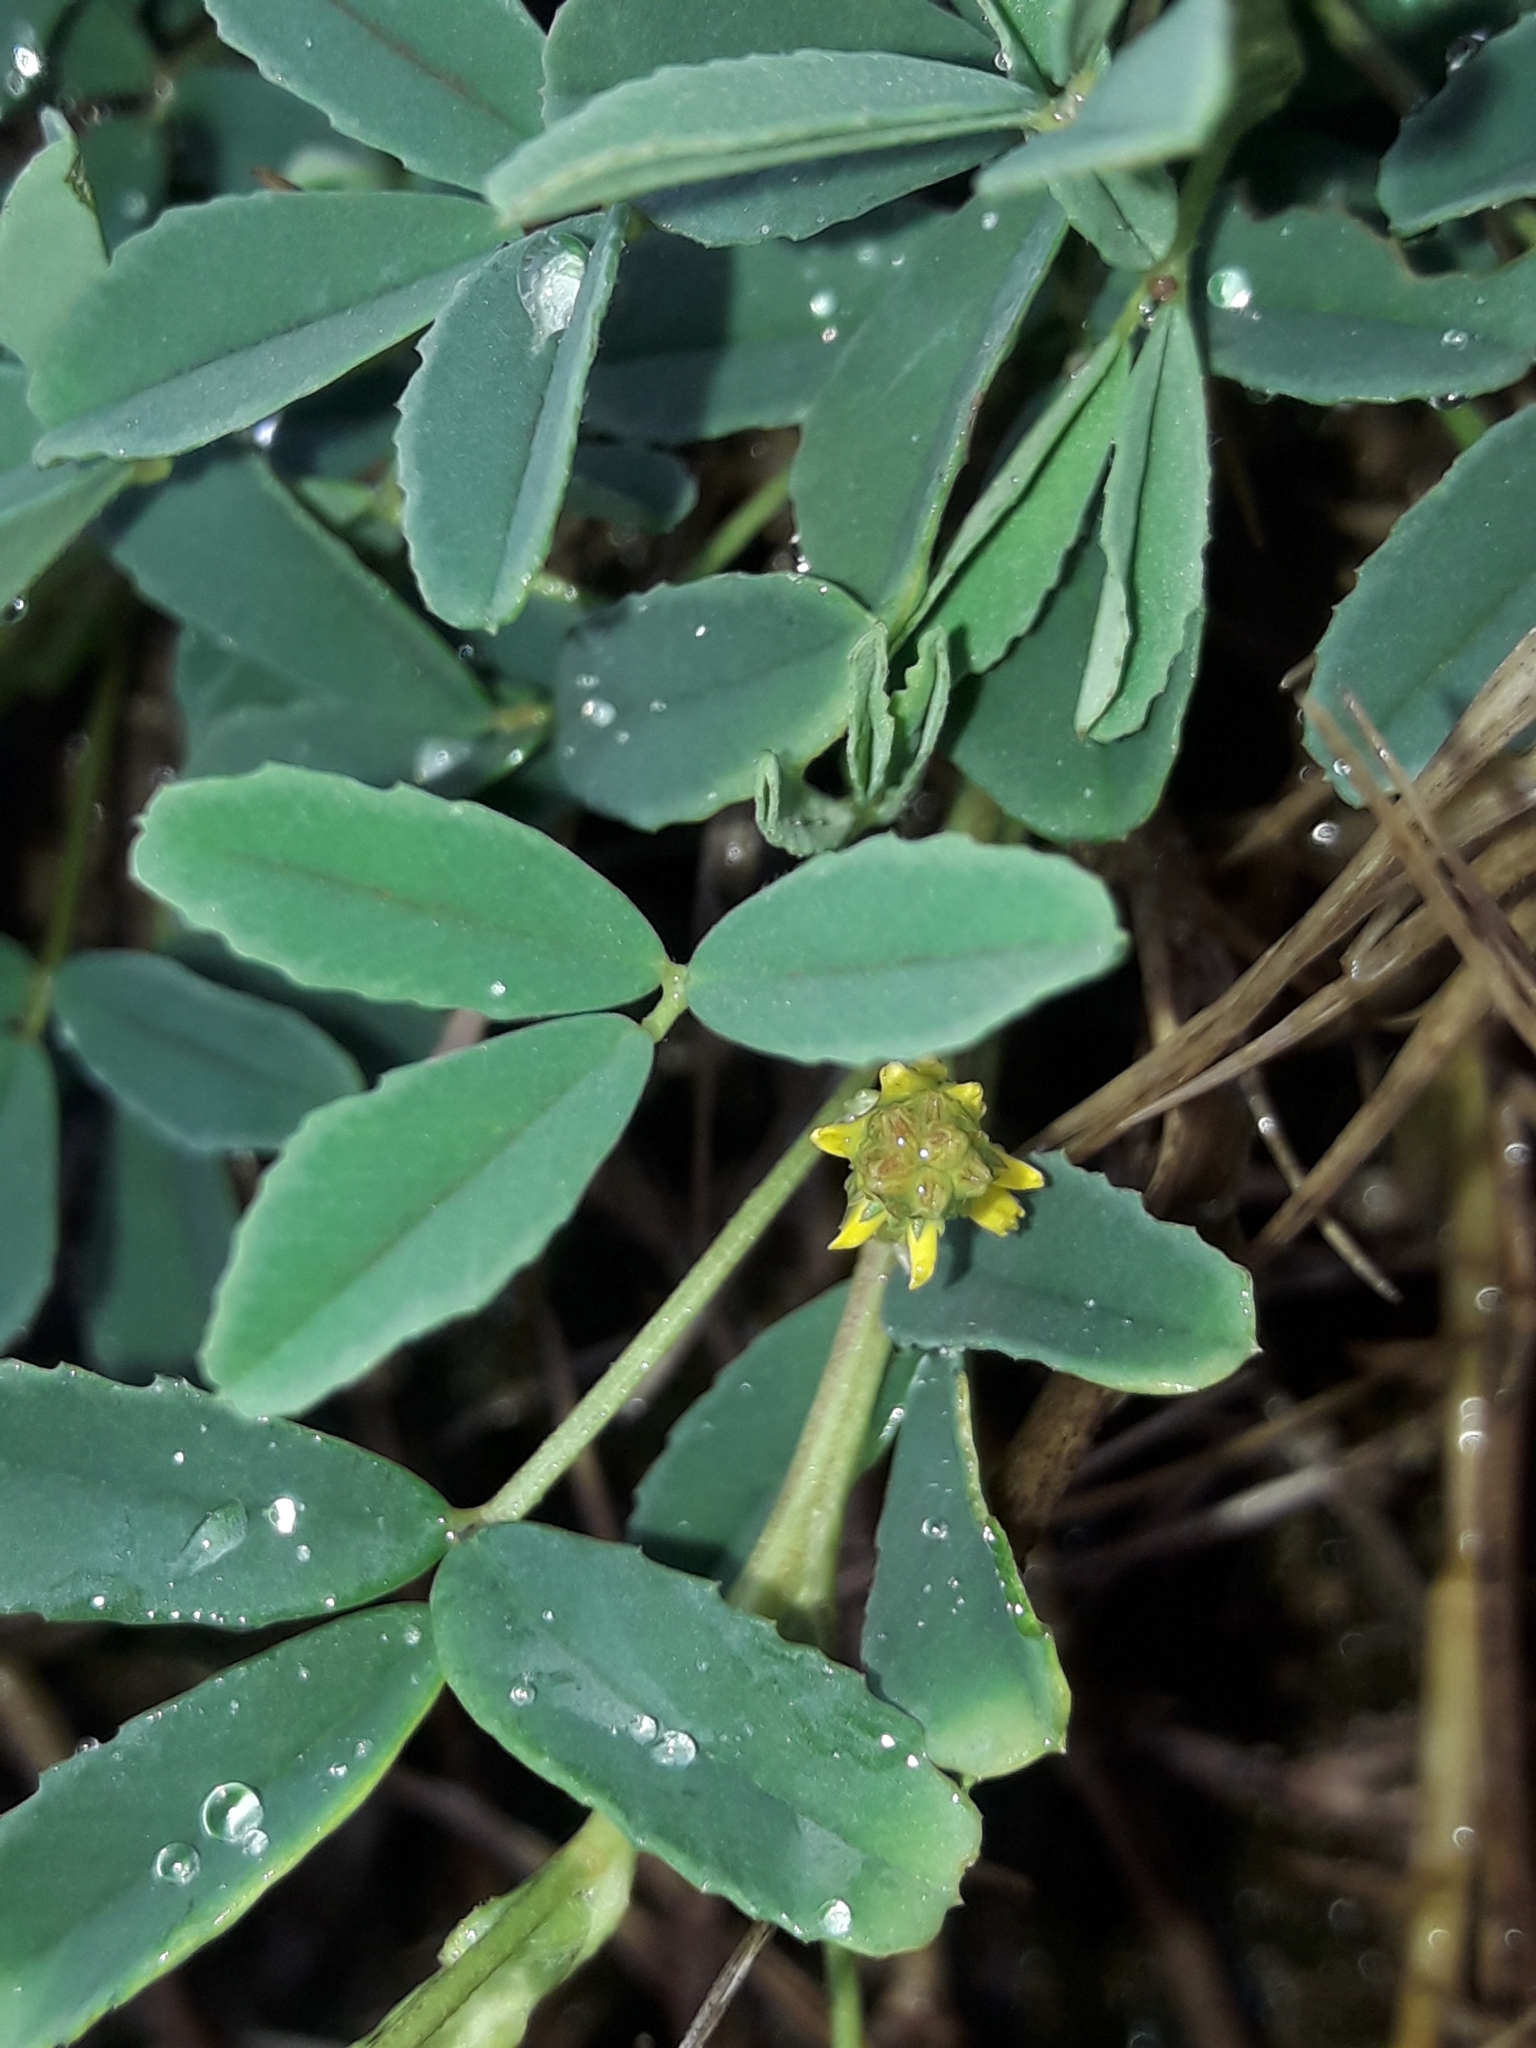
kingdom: Plantae
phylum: Tracheophyta
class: Magnoliopsida
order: Fabales
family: Fabaceae
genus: Melilotus
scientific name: Melilotus indicus
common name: Small melilot
